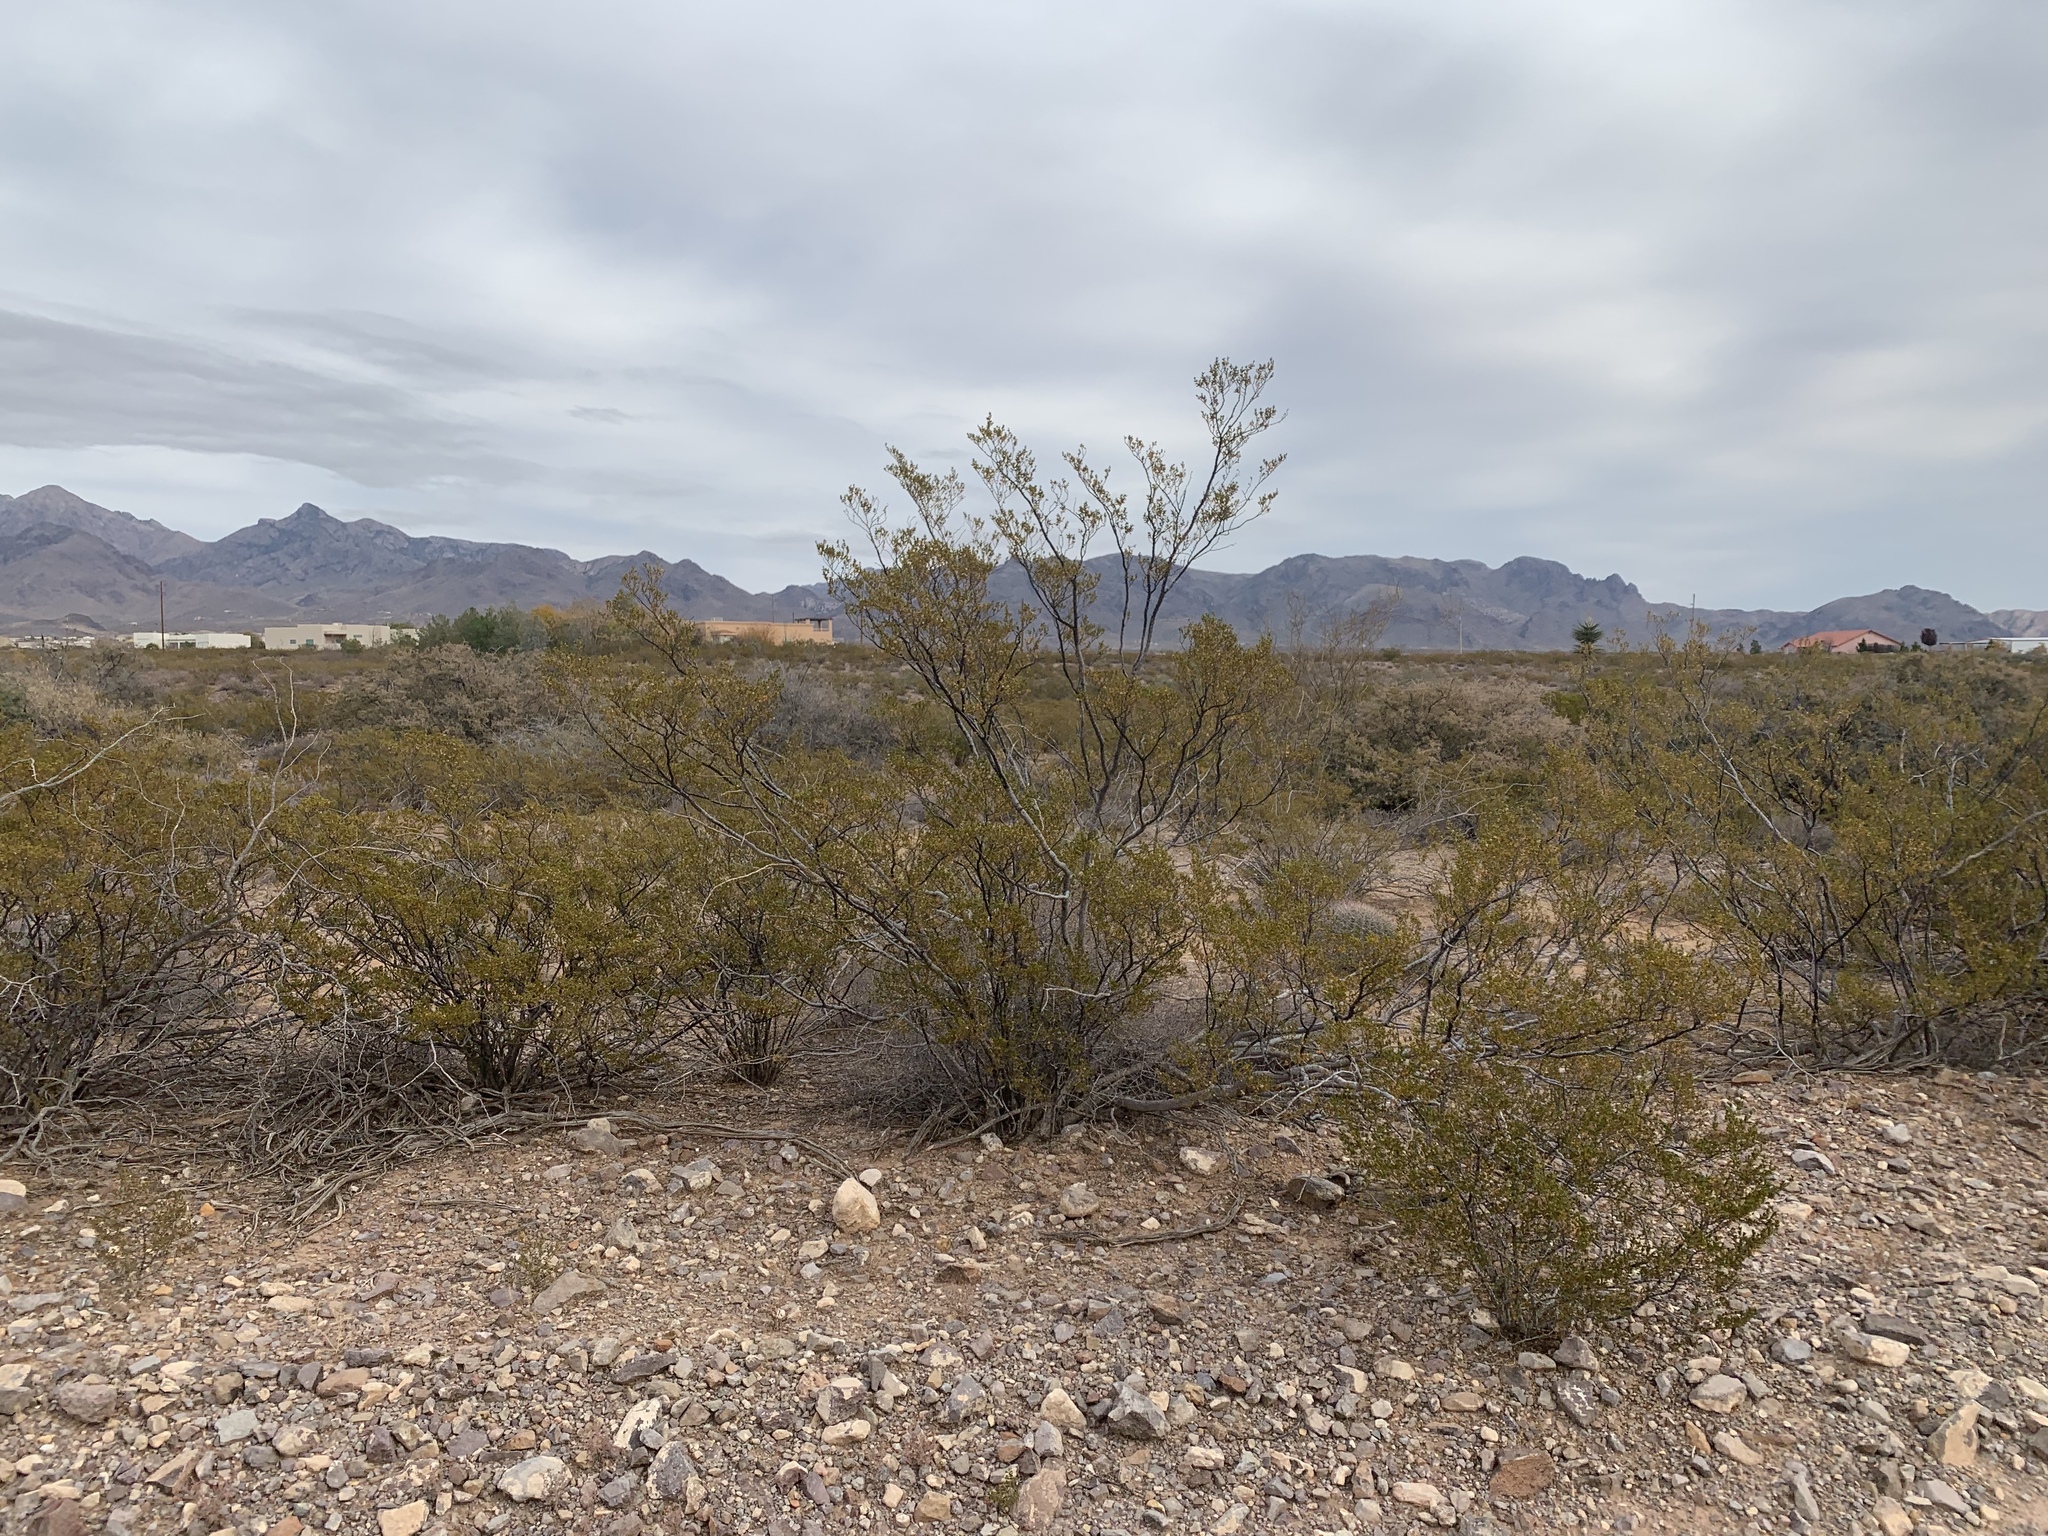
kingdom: Plantae
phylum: Tracheophyta
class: Magnoliopsida
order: Zygophyllales
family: Zygophyllaceae
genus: Larrea
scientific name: Larrea tridentata
